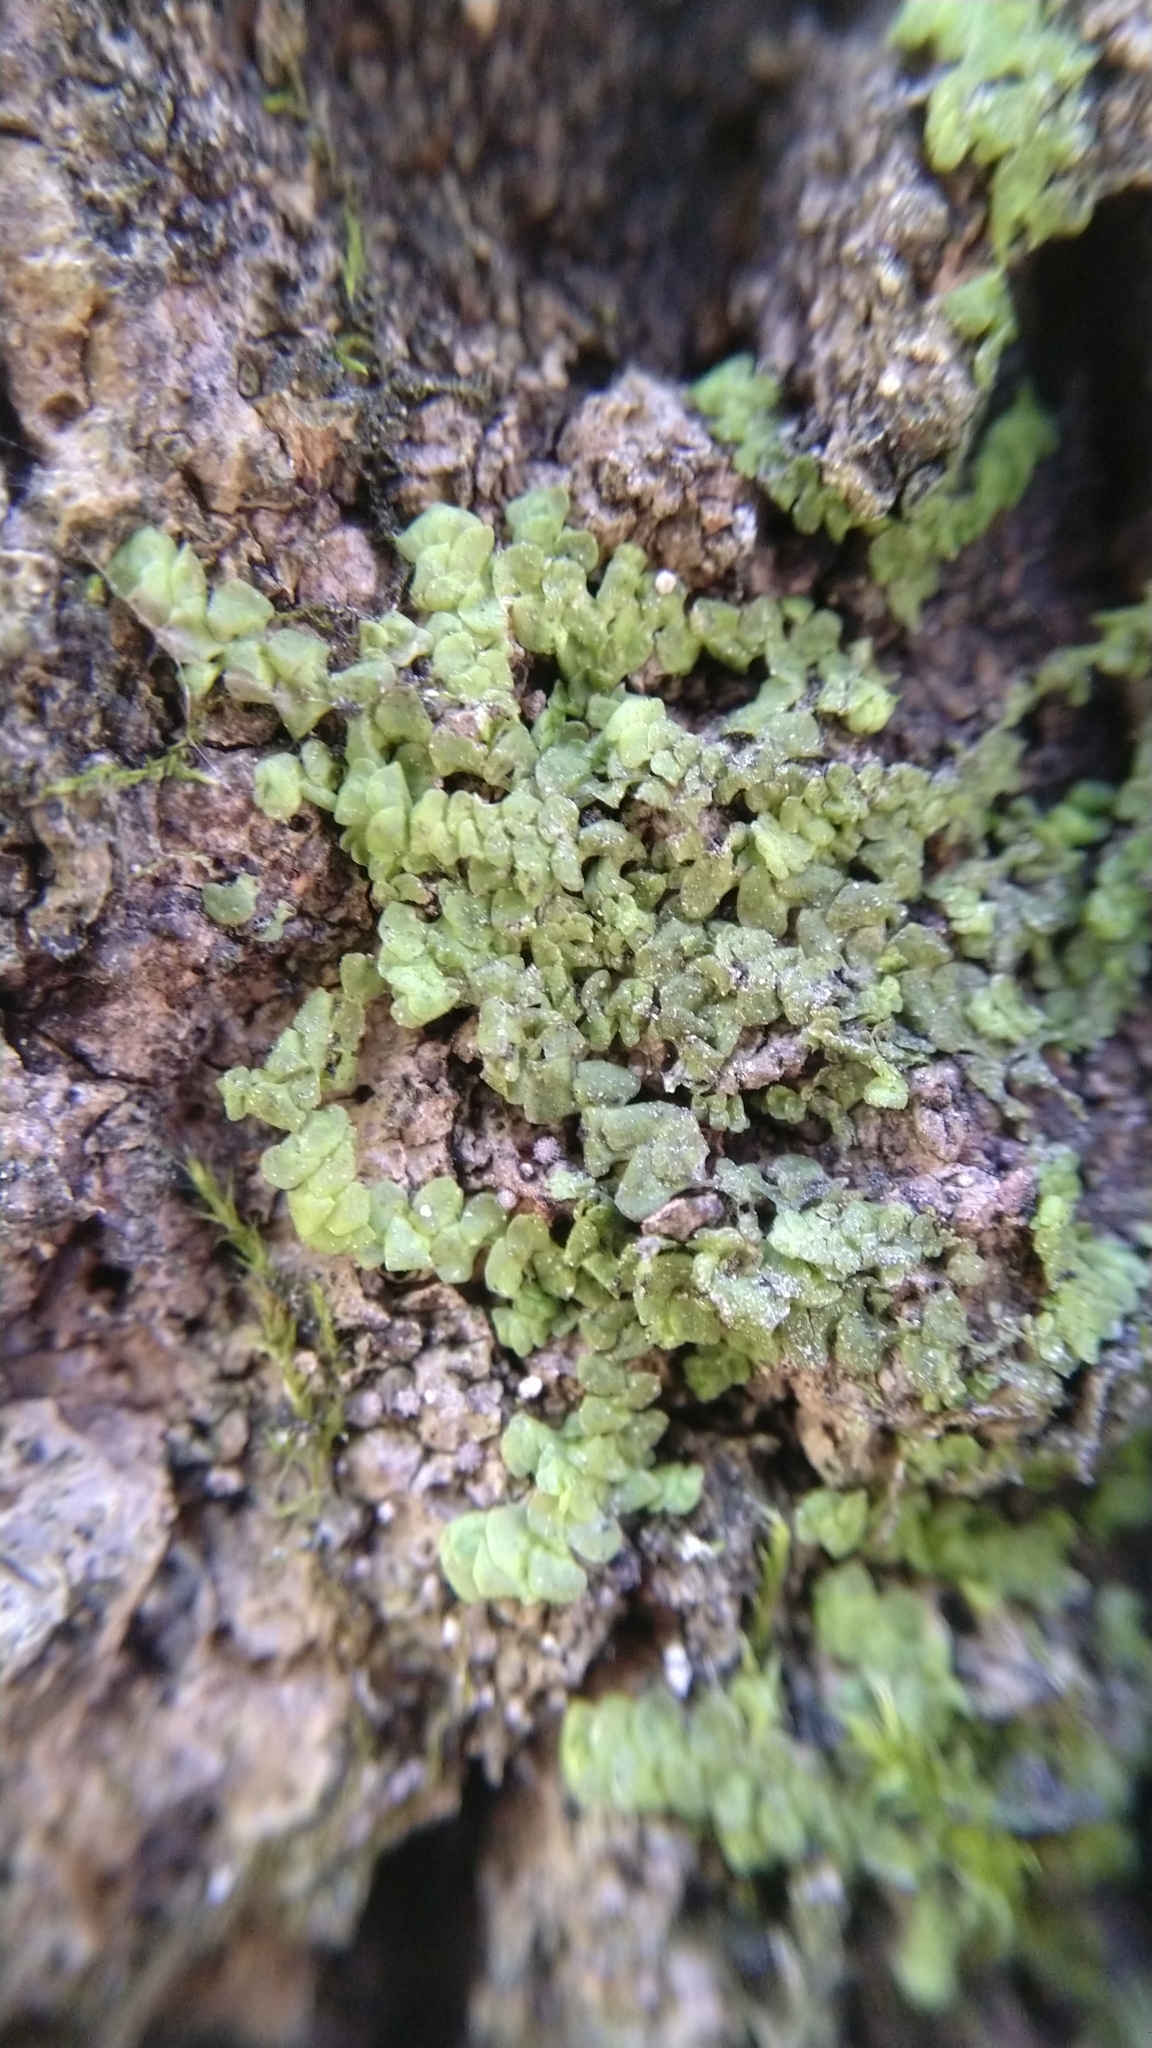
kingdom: Plantae
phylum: Marchantiophyta
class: Jungermanniopsida
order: Porellales
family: Radulaceae
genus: Radula
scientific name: Radula complanata
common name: Flat-leaved scalewort
